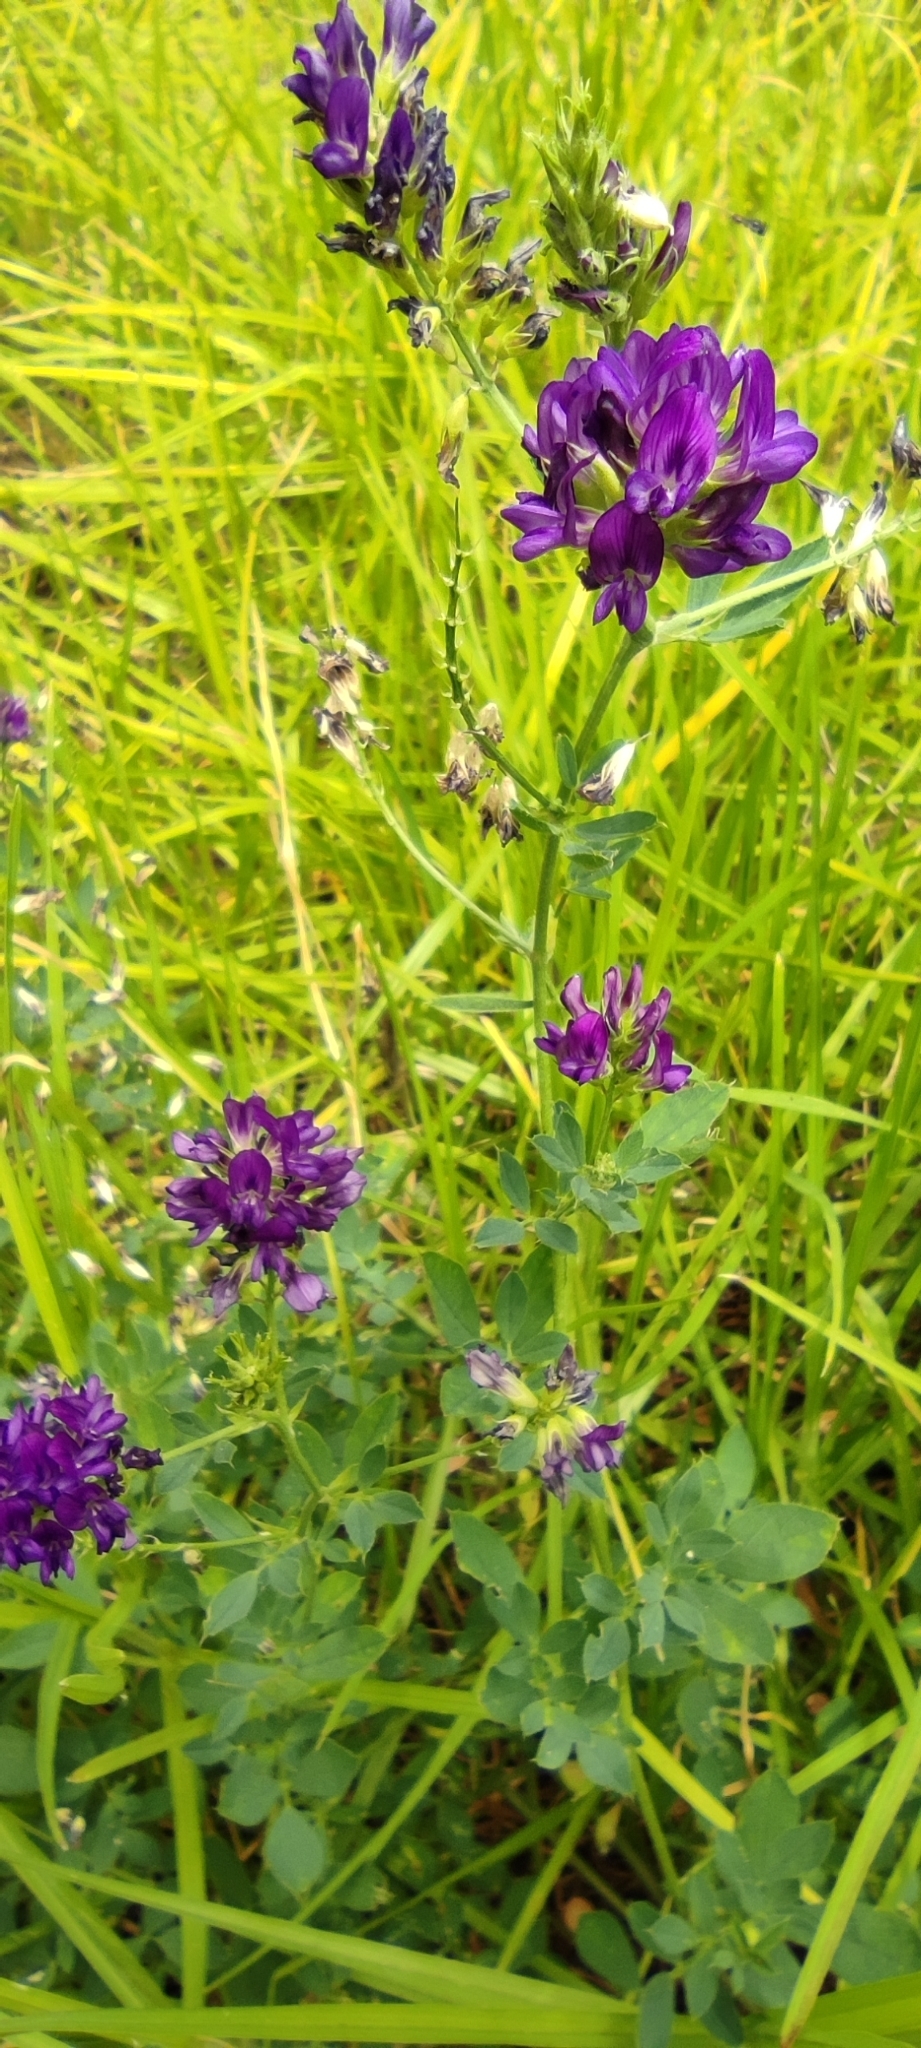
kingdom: Plantae
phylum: Tracheophyta
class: Magnoliopsida
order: Fabales
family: Fabaceae
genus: Medicago
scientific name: Medicago sativa
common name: Alfalfa
